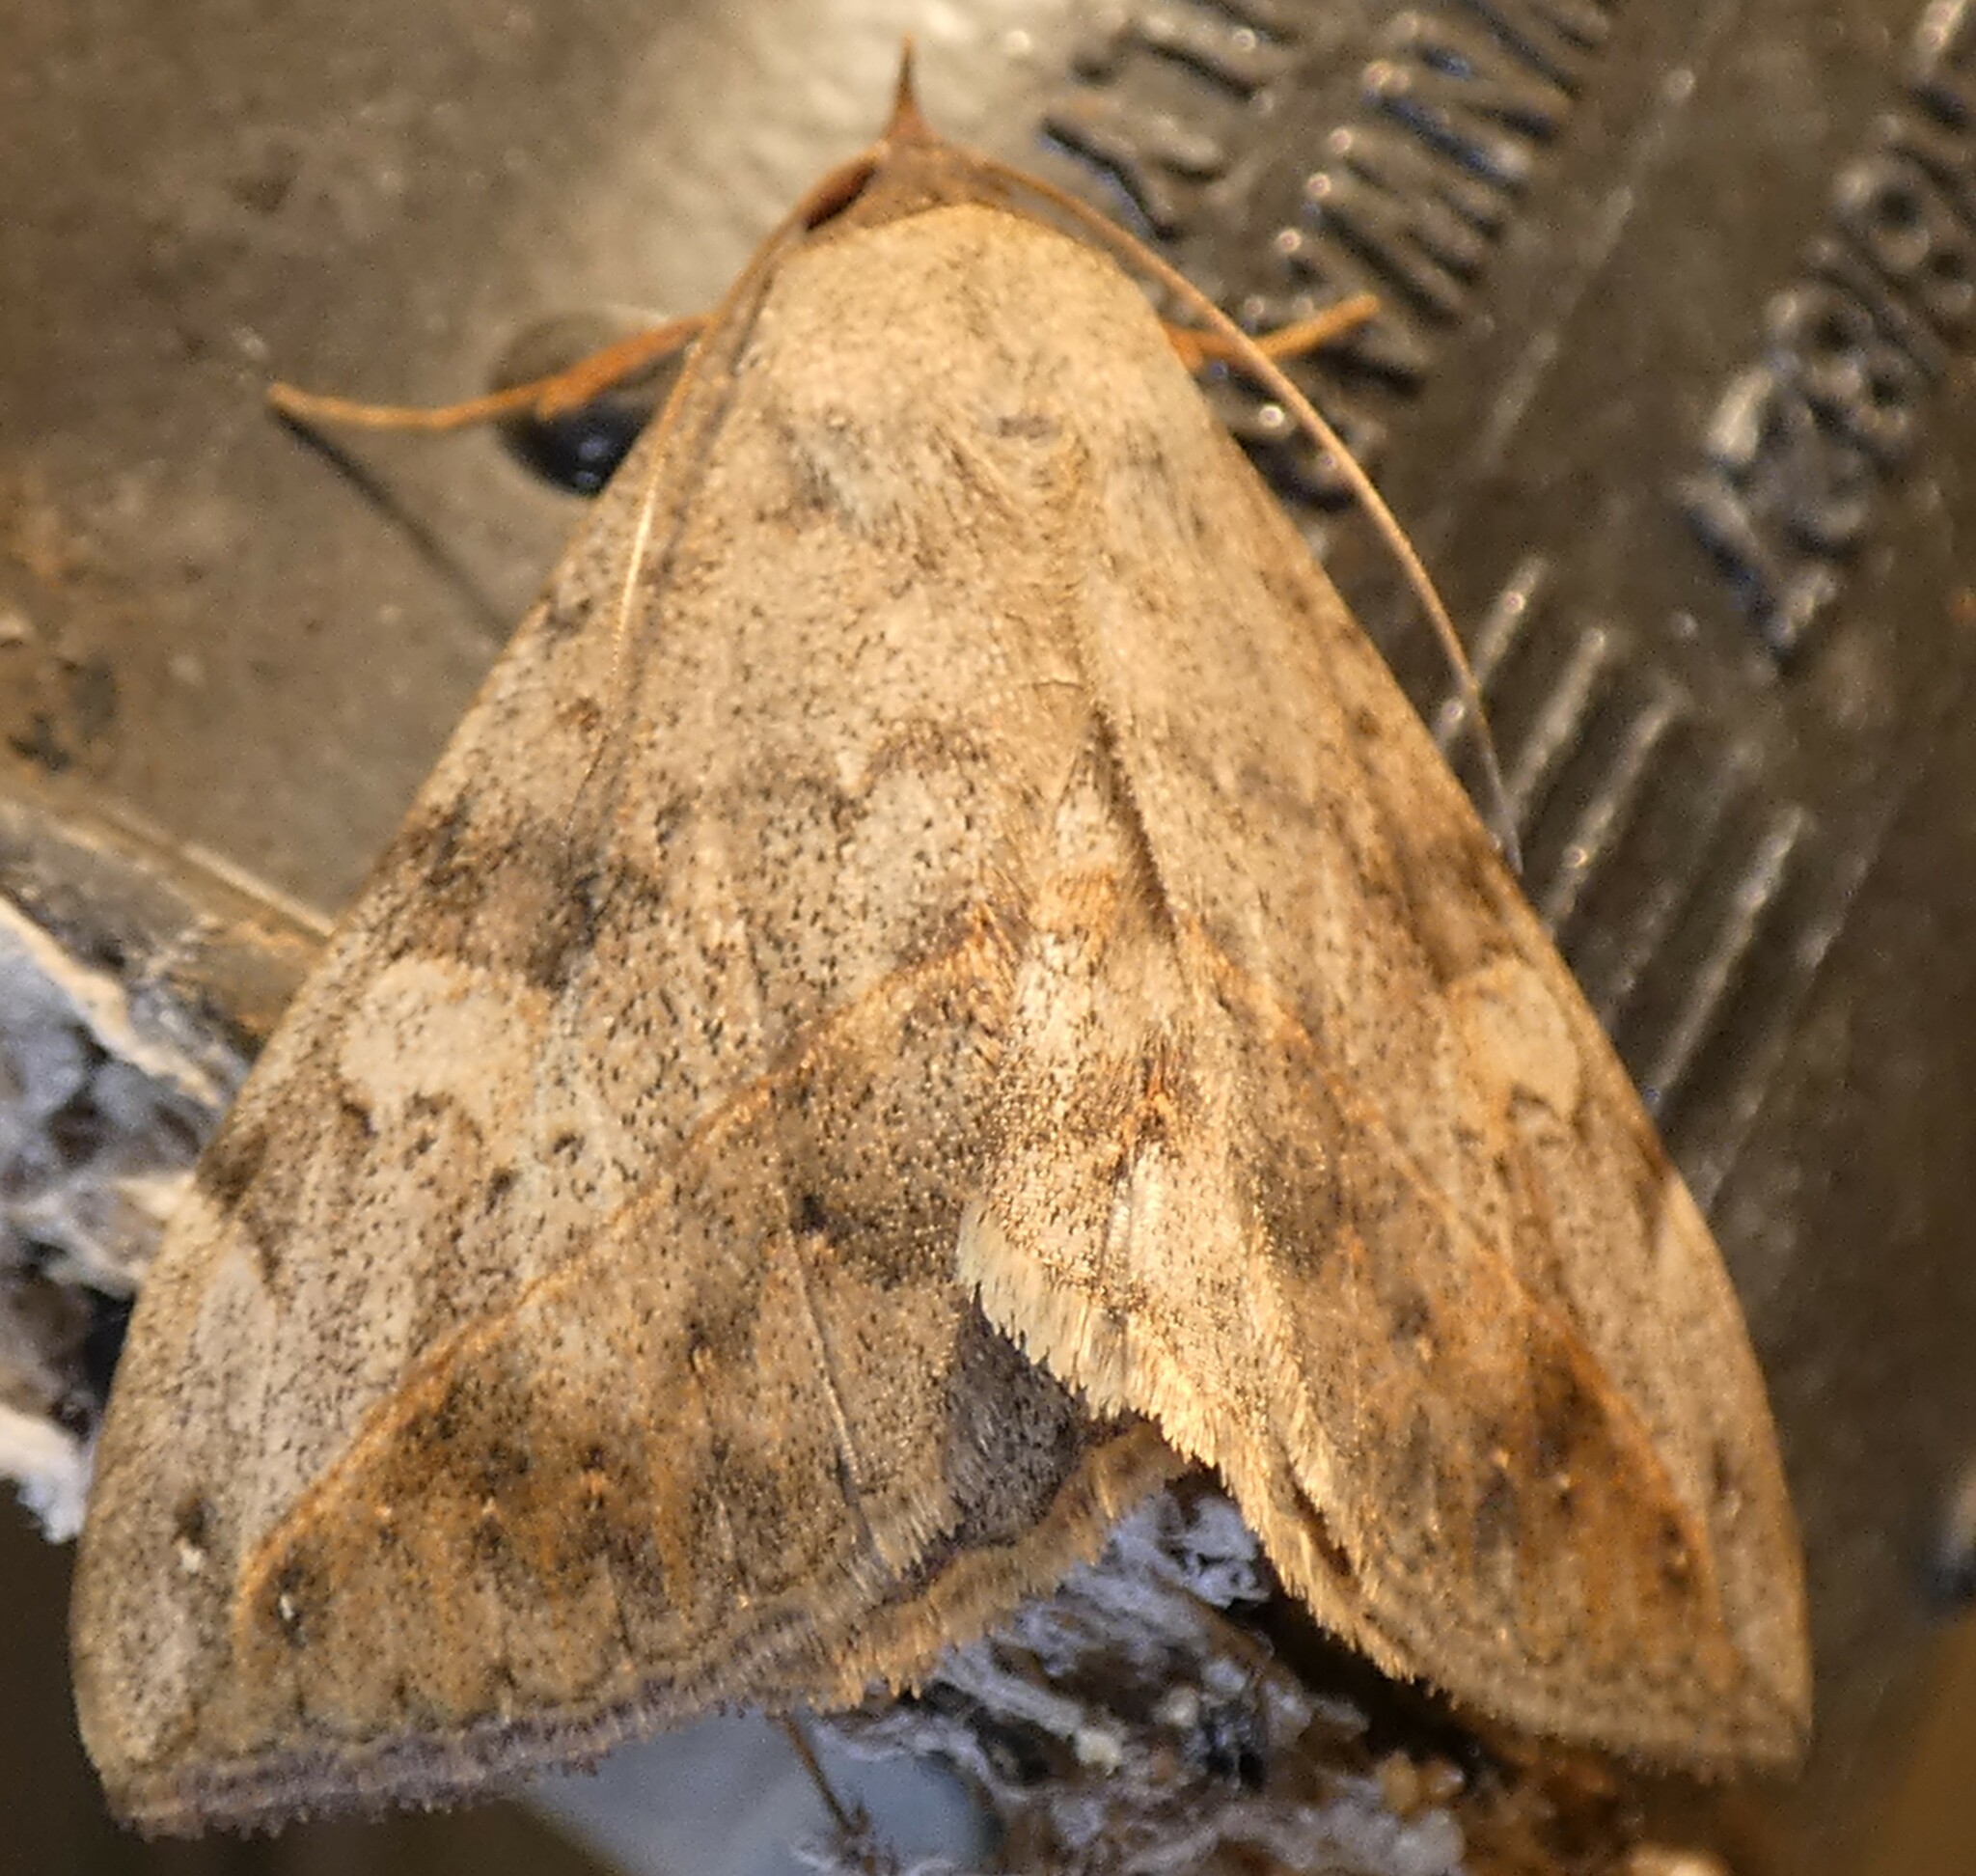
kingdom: Animalia
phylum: Arthropoda
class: Insecta
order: Lepidoptera
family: Erebidae
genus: Anticarsia
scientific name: Anticarsia gemmatalis
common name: Cutworm moth
